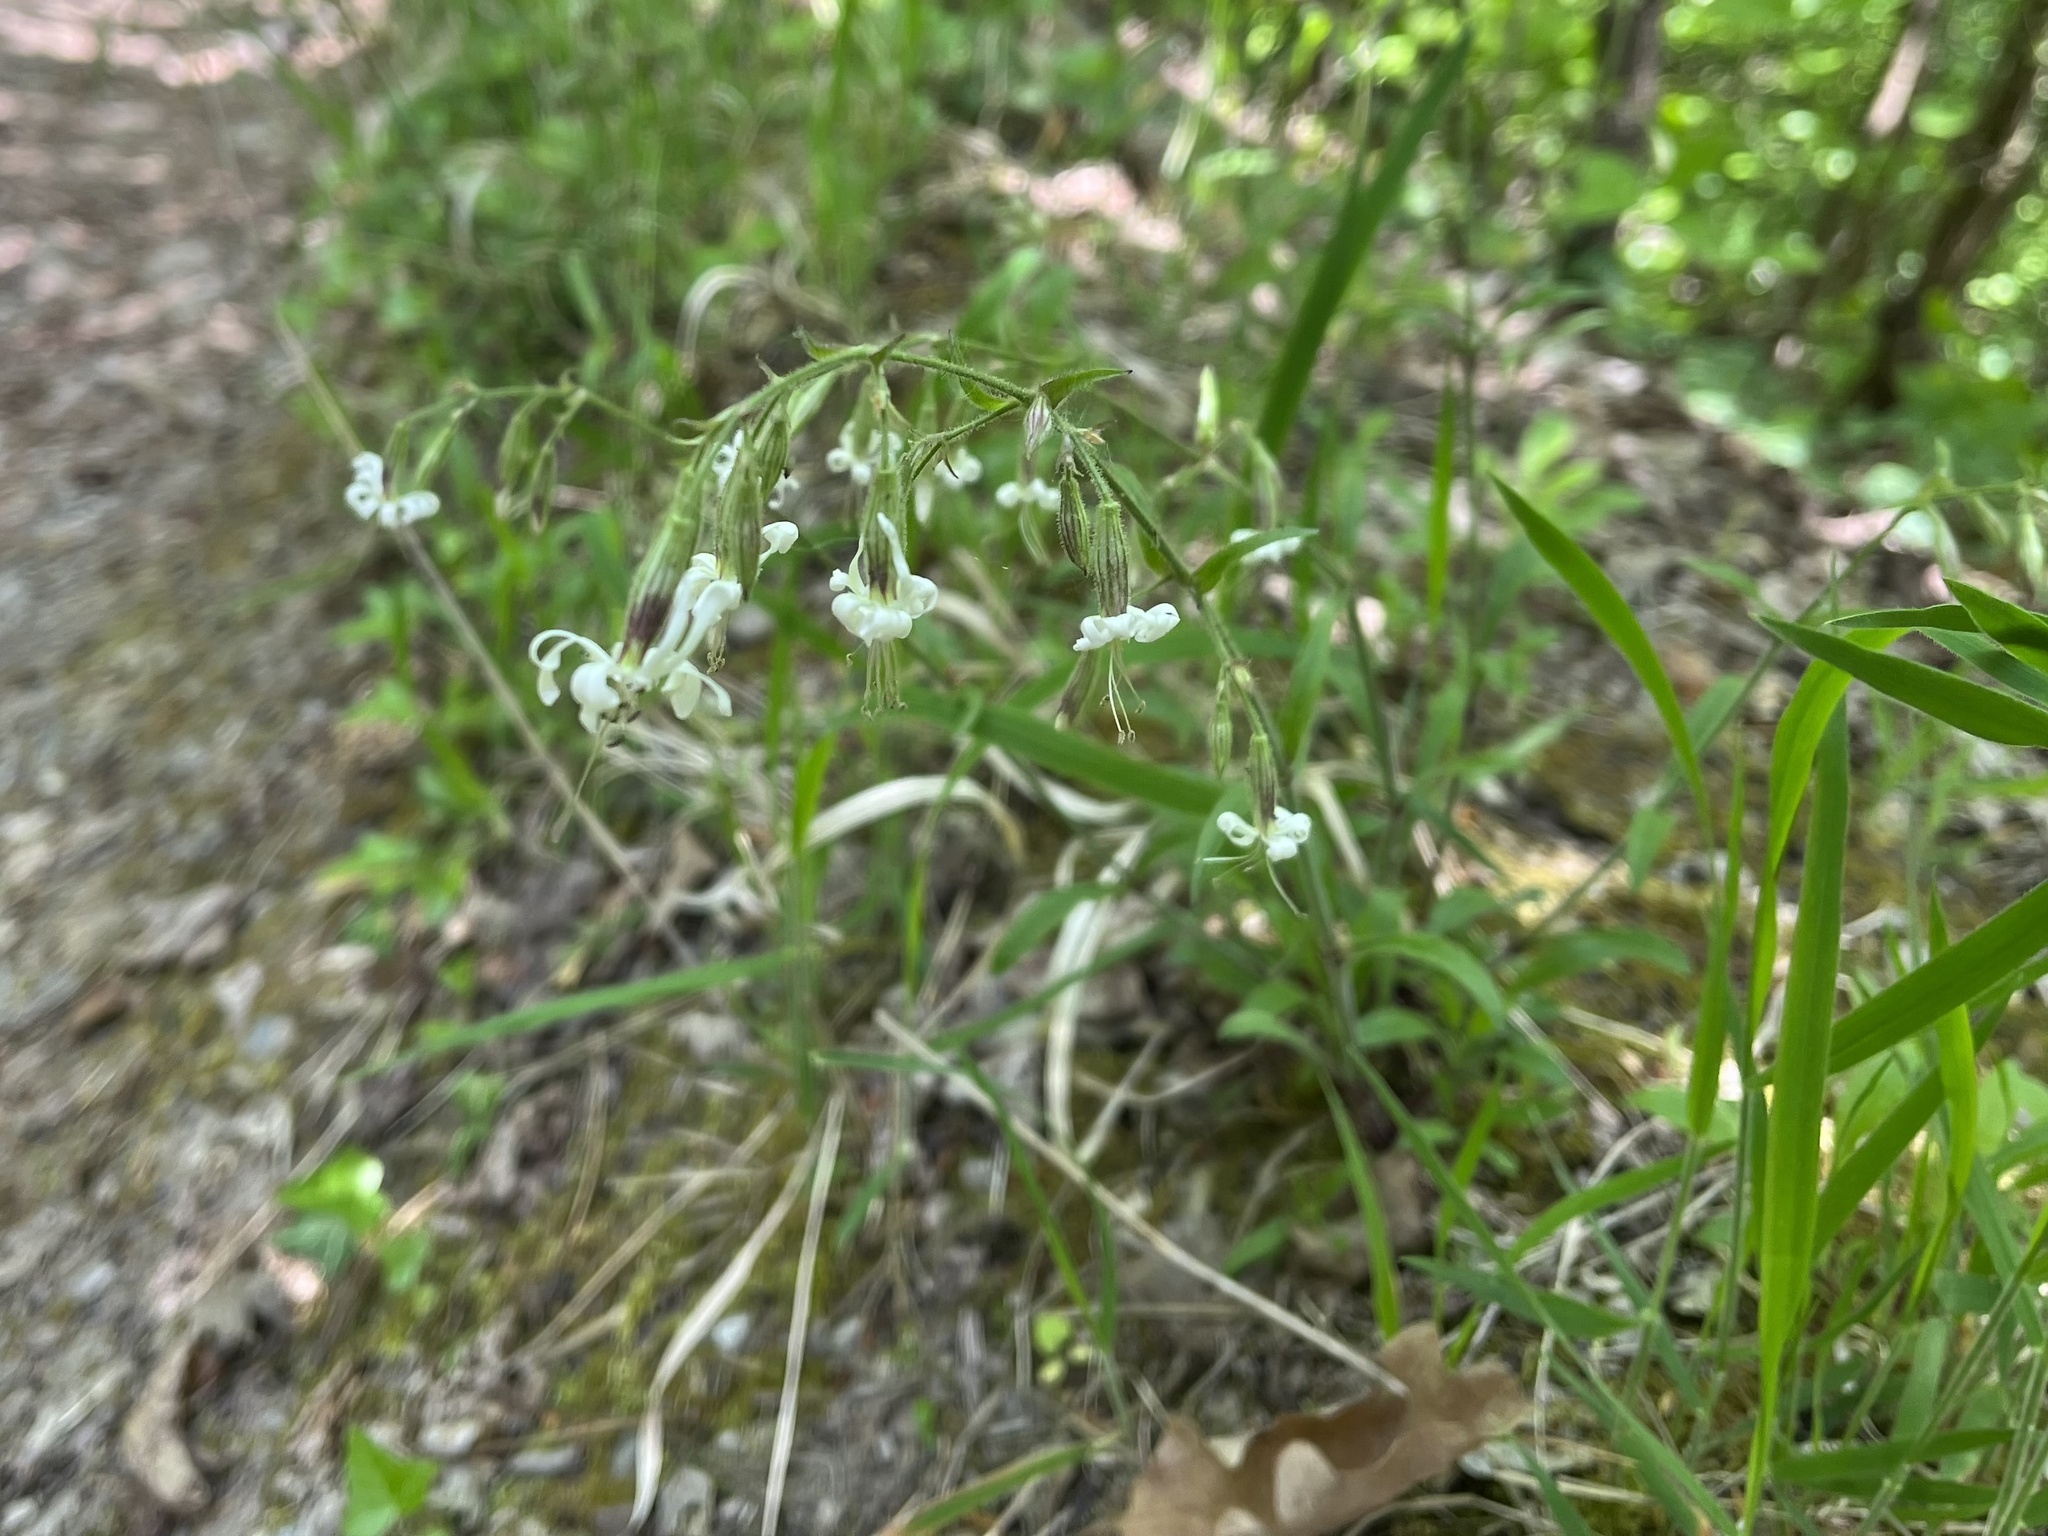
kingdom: Plantae
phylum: Tracheophyta
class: Magnoliopsida
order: Caryophyllales
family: Caryophyllaceae
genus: Silene
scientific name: Silene nutans
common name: Nottingham catchfly
